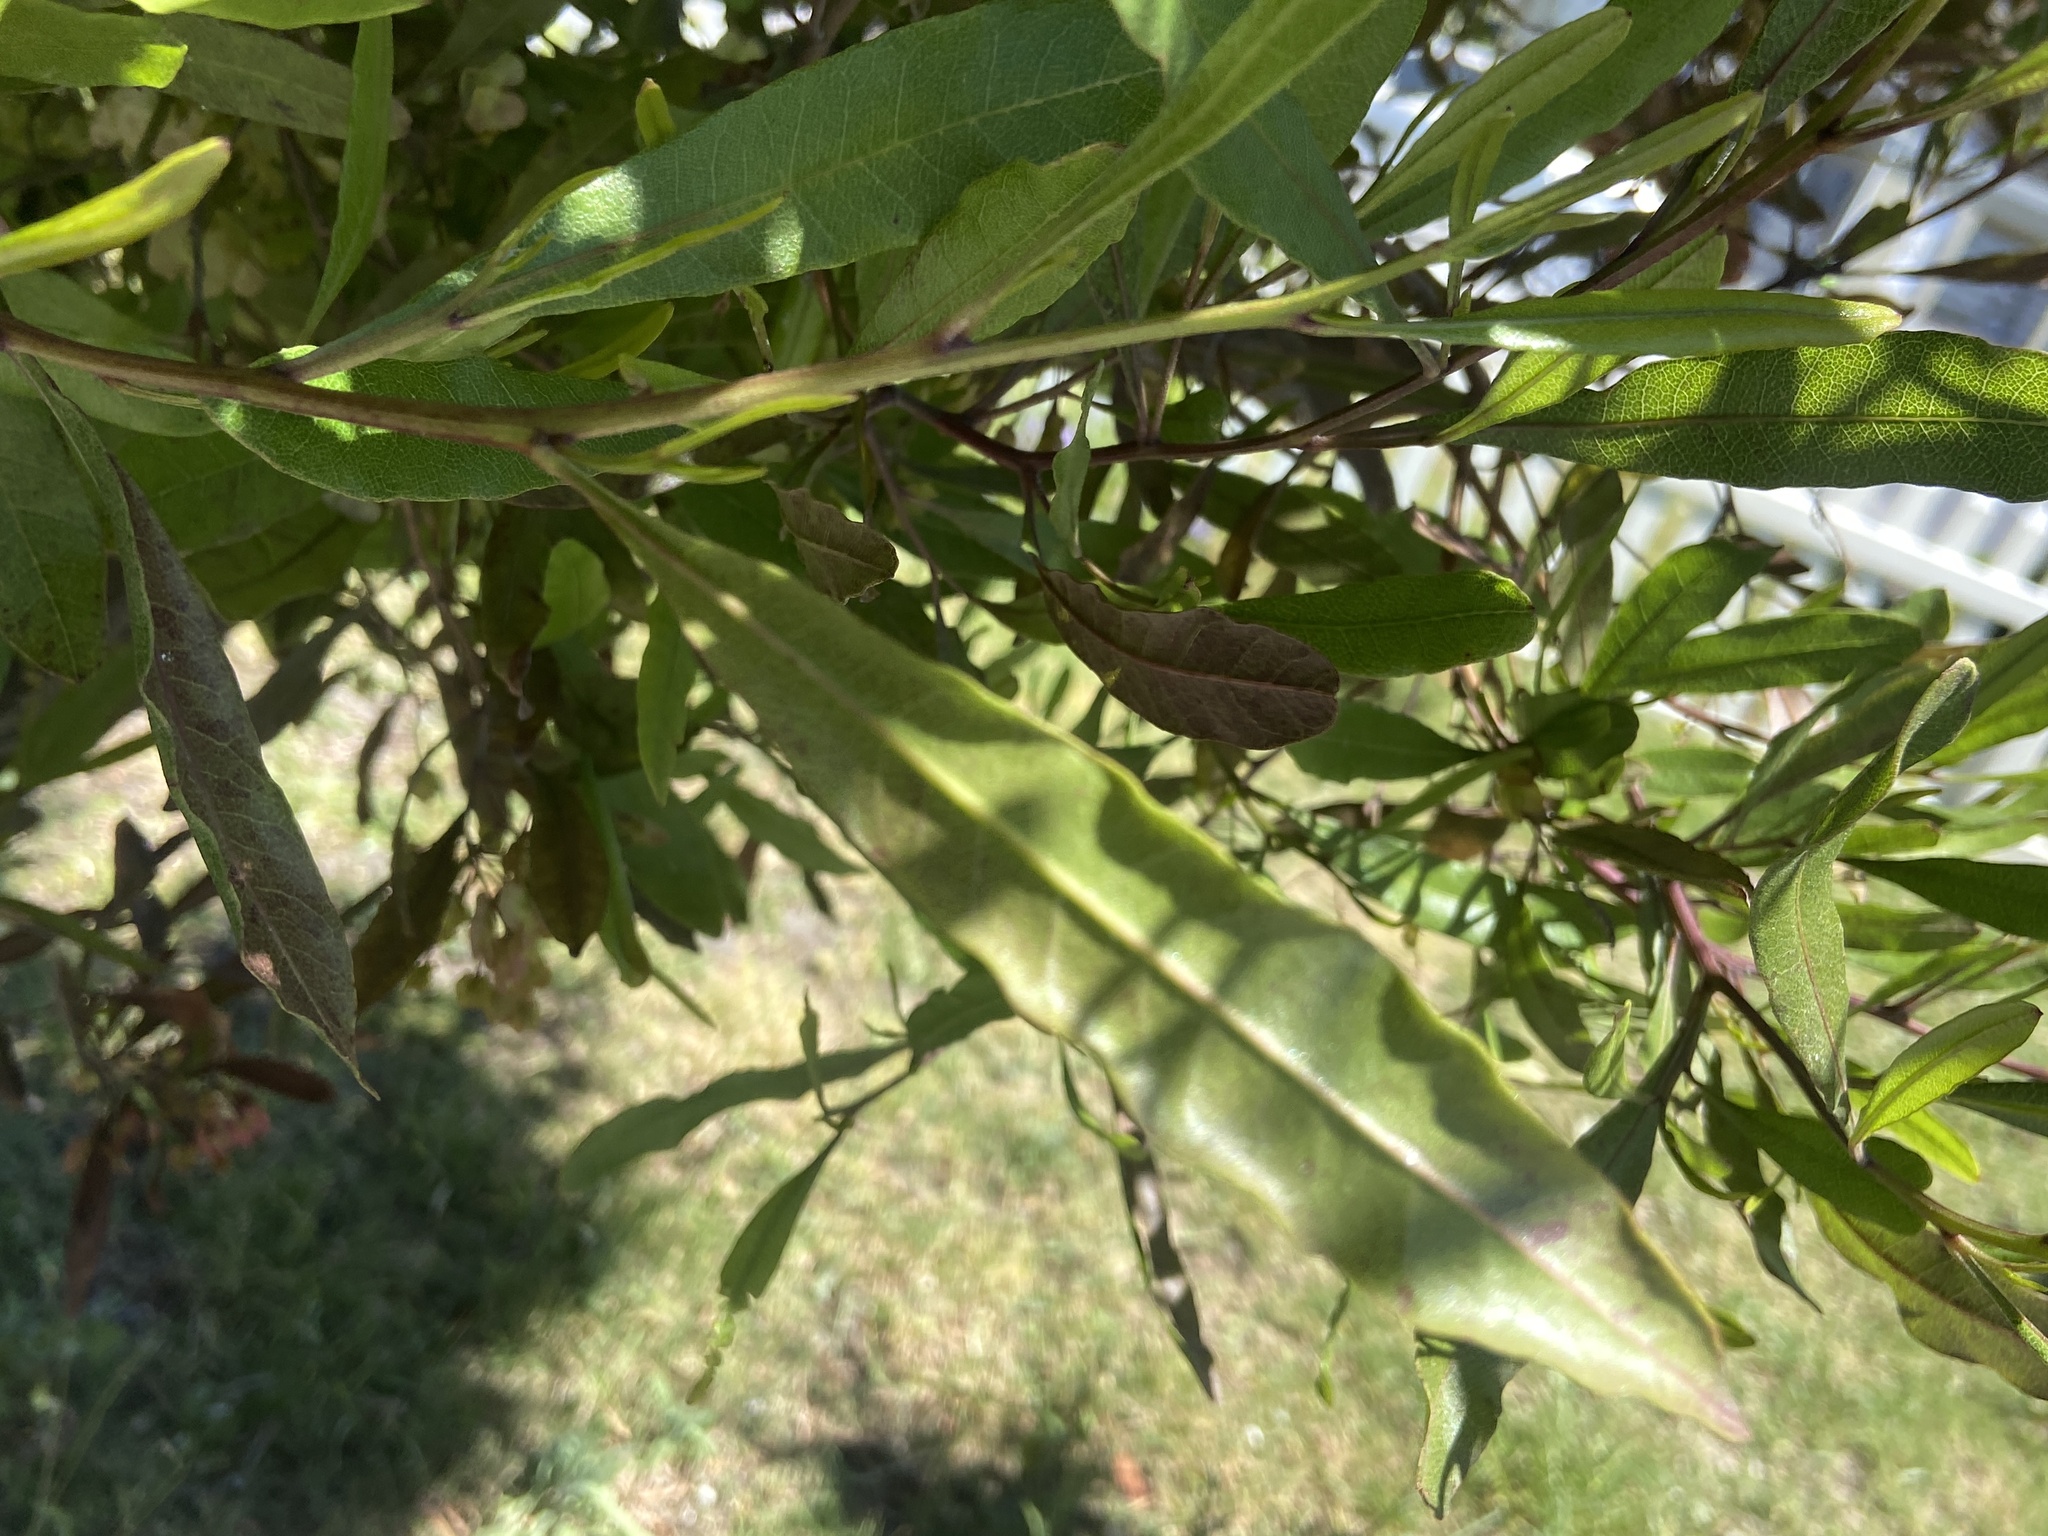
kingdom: Plantae
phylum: Tracheophyta
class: Magnoliopsida
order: Sapindales
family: Sapindaceae
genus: Dodonaea
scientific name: Dodonaea viscosa
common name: Hopbush
